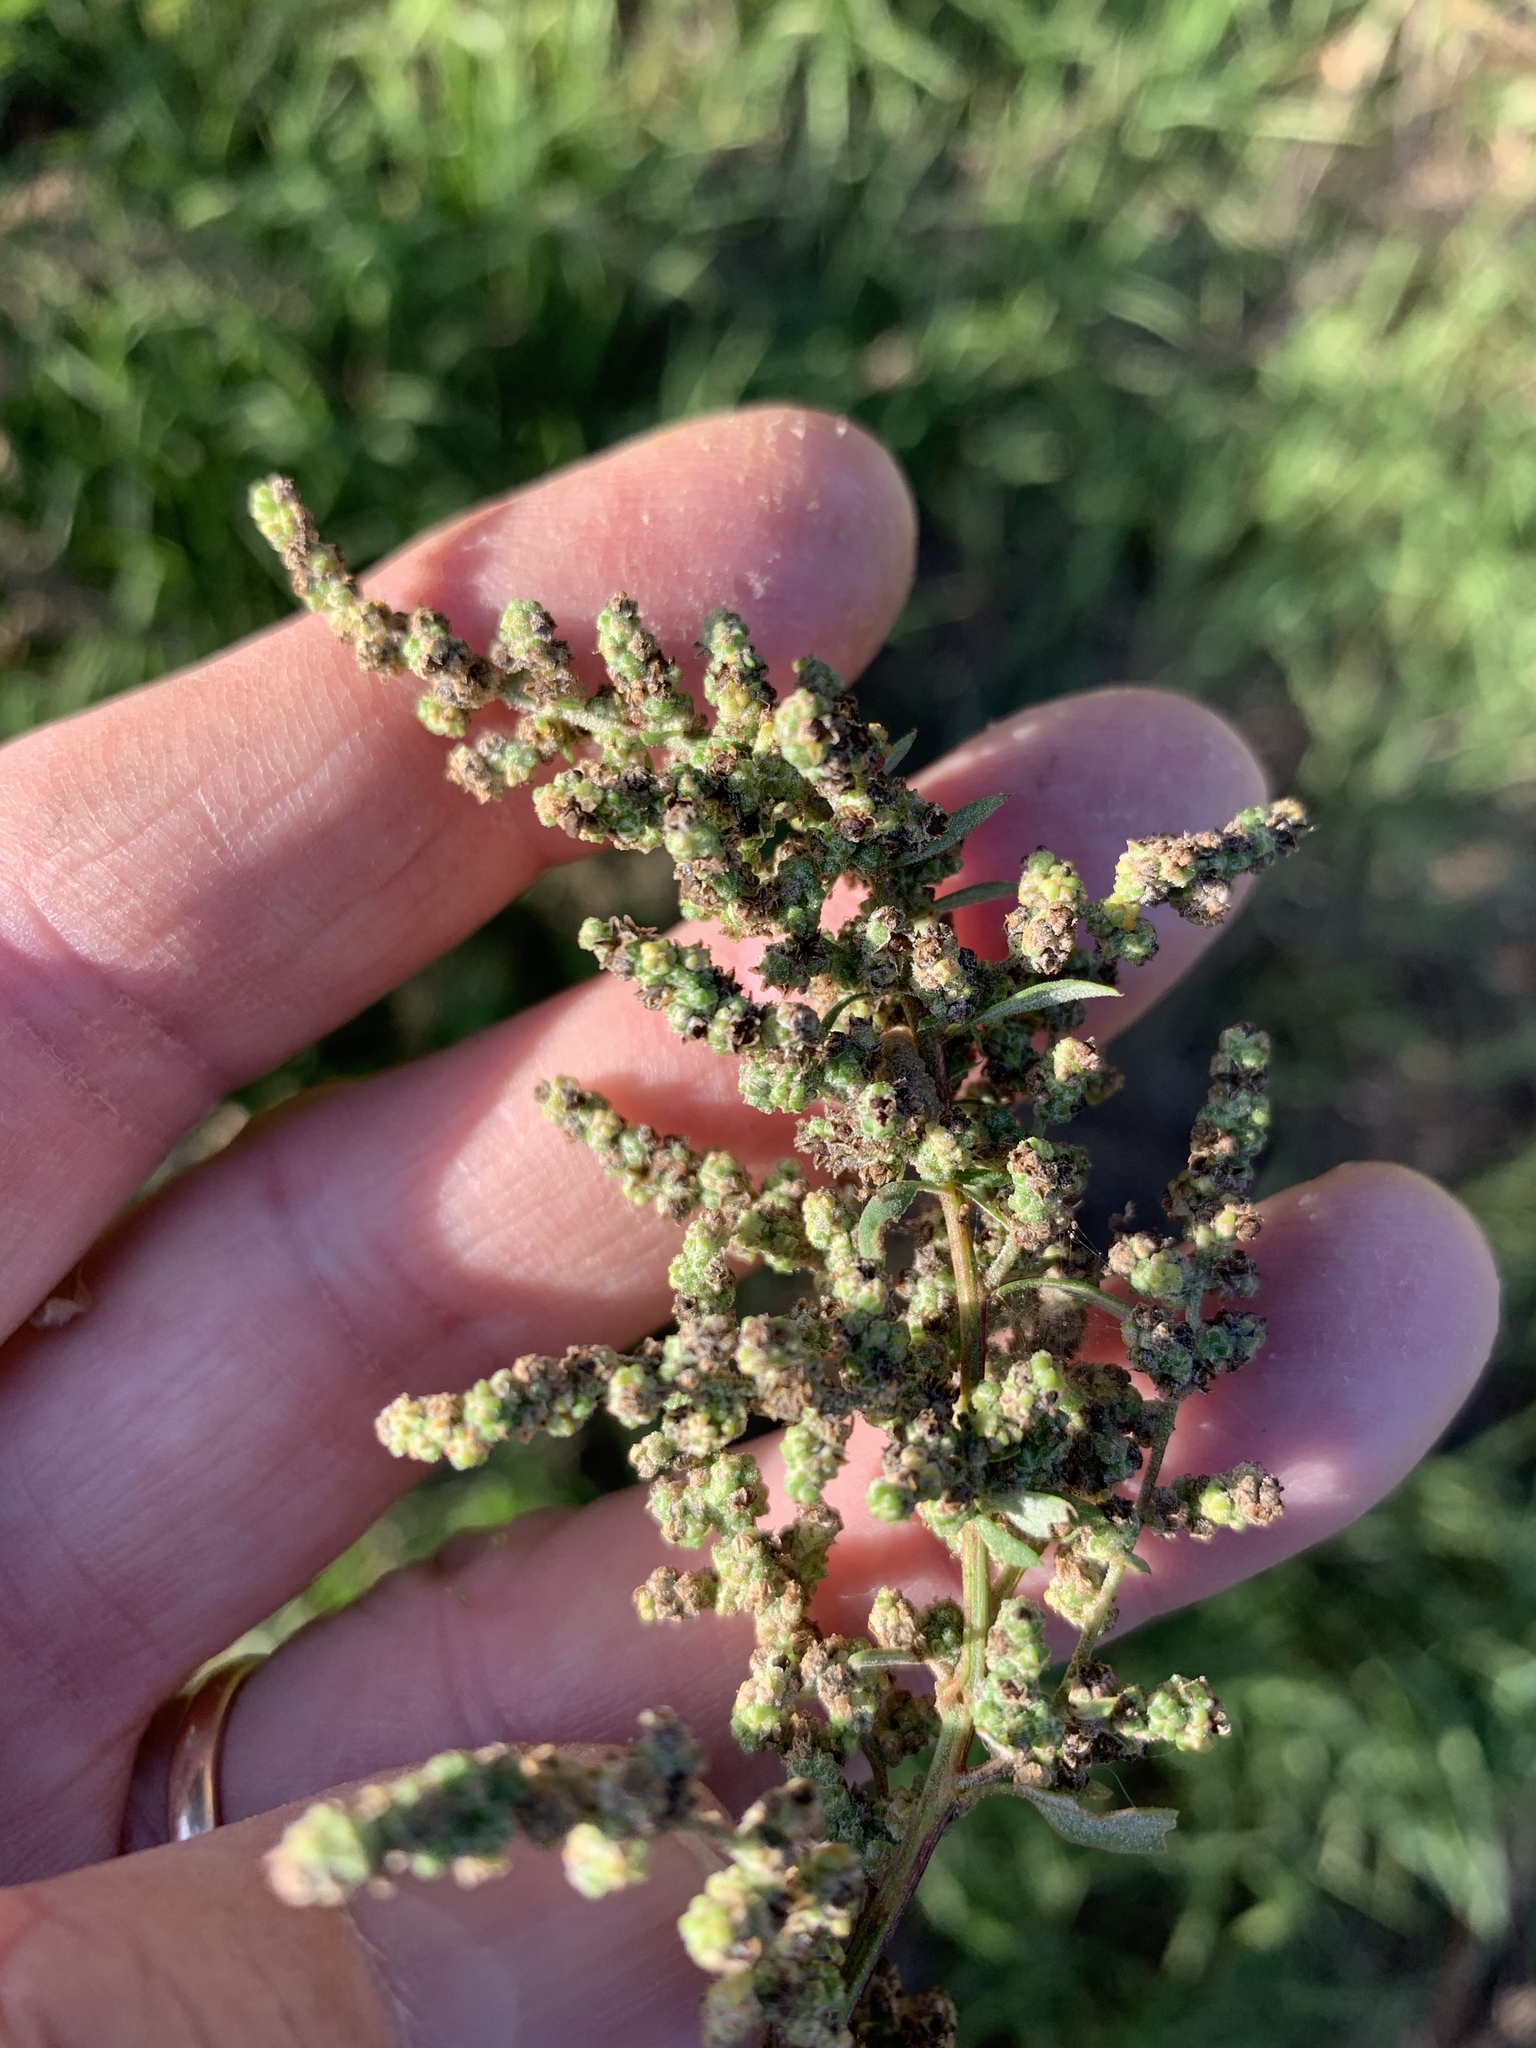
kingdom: Plantae
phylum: Tracheophyta
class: Magnoliopsida
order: Caryophyllales
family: Amaranthaceae
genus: Chenopodium
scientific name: Chenopodium album
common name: Fat-hen
